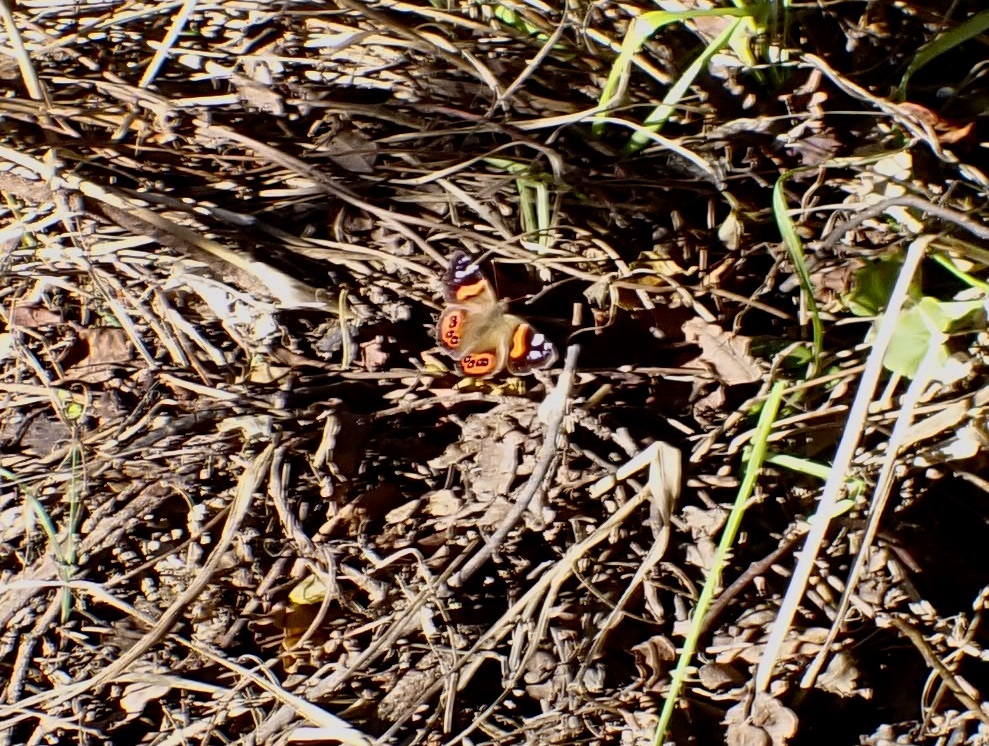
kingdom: Animalia
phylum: Arthropoda
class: Insecta
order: Lepidoptera
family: Nymphalidae
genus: Vanessa
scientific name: Vanessa gonerilla
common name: New zealand red admiral
